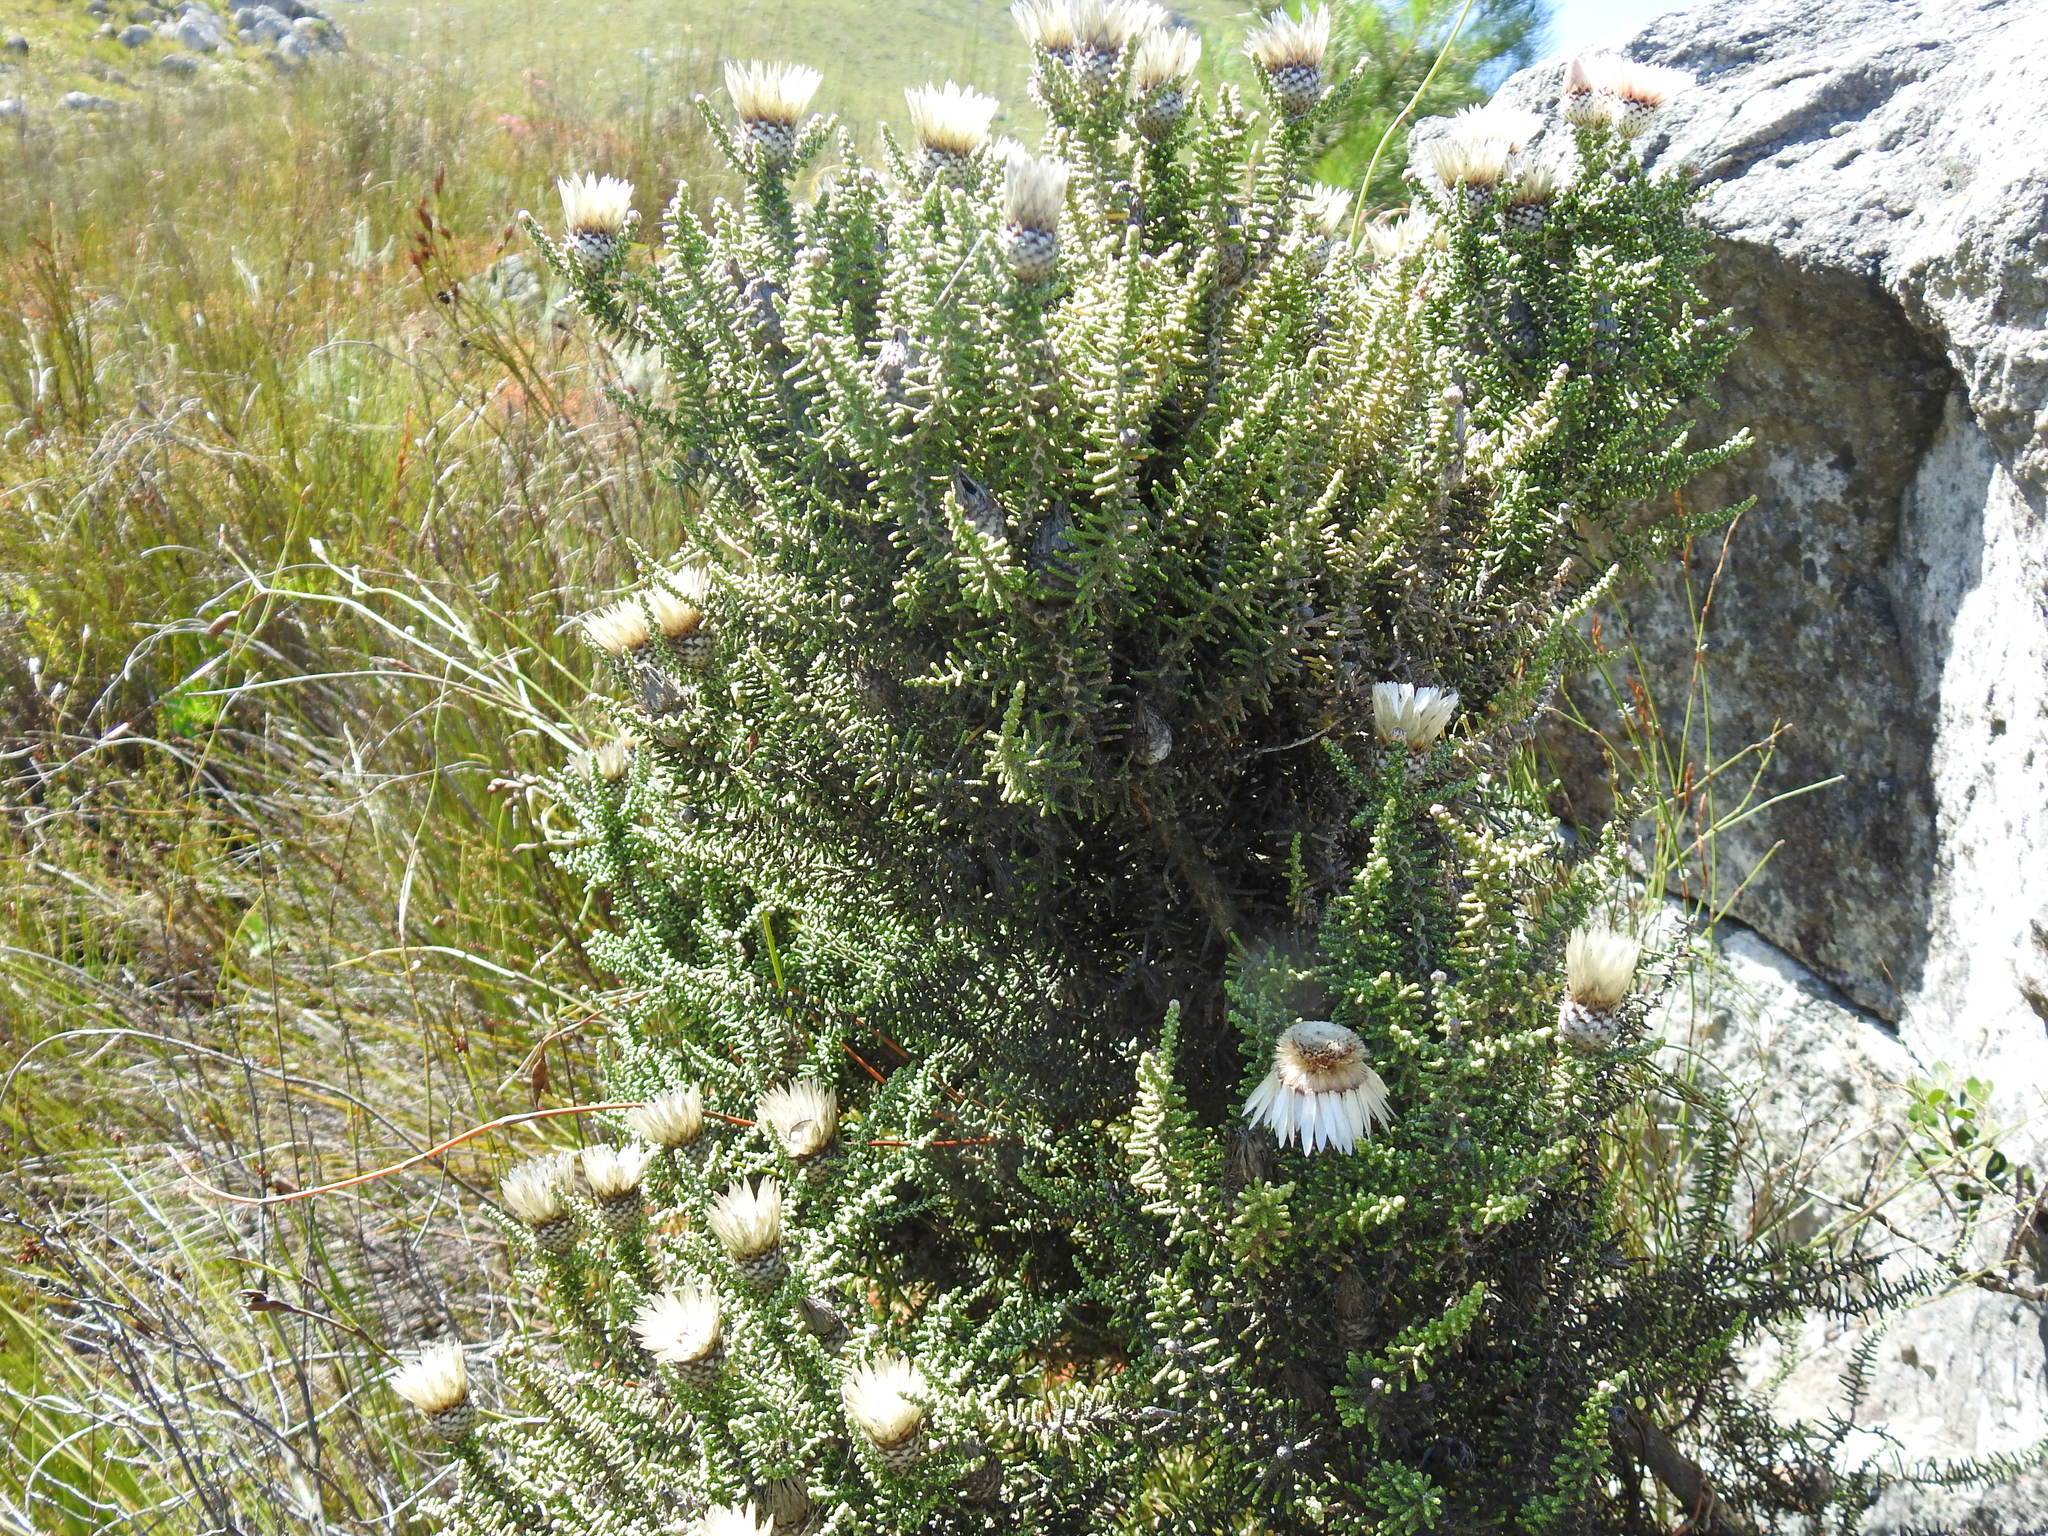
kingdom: Plantae
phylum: Tracheophyta
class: Magnoliopsida
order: Asterales
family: Asteraceae
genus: Phaenocoma
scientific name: Phaenocoma prolifera
